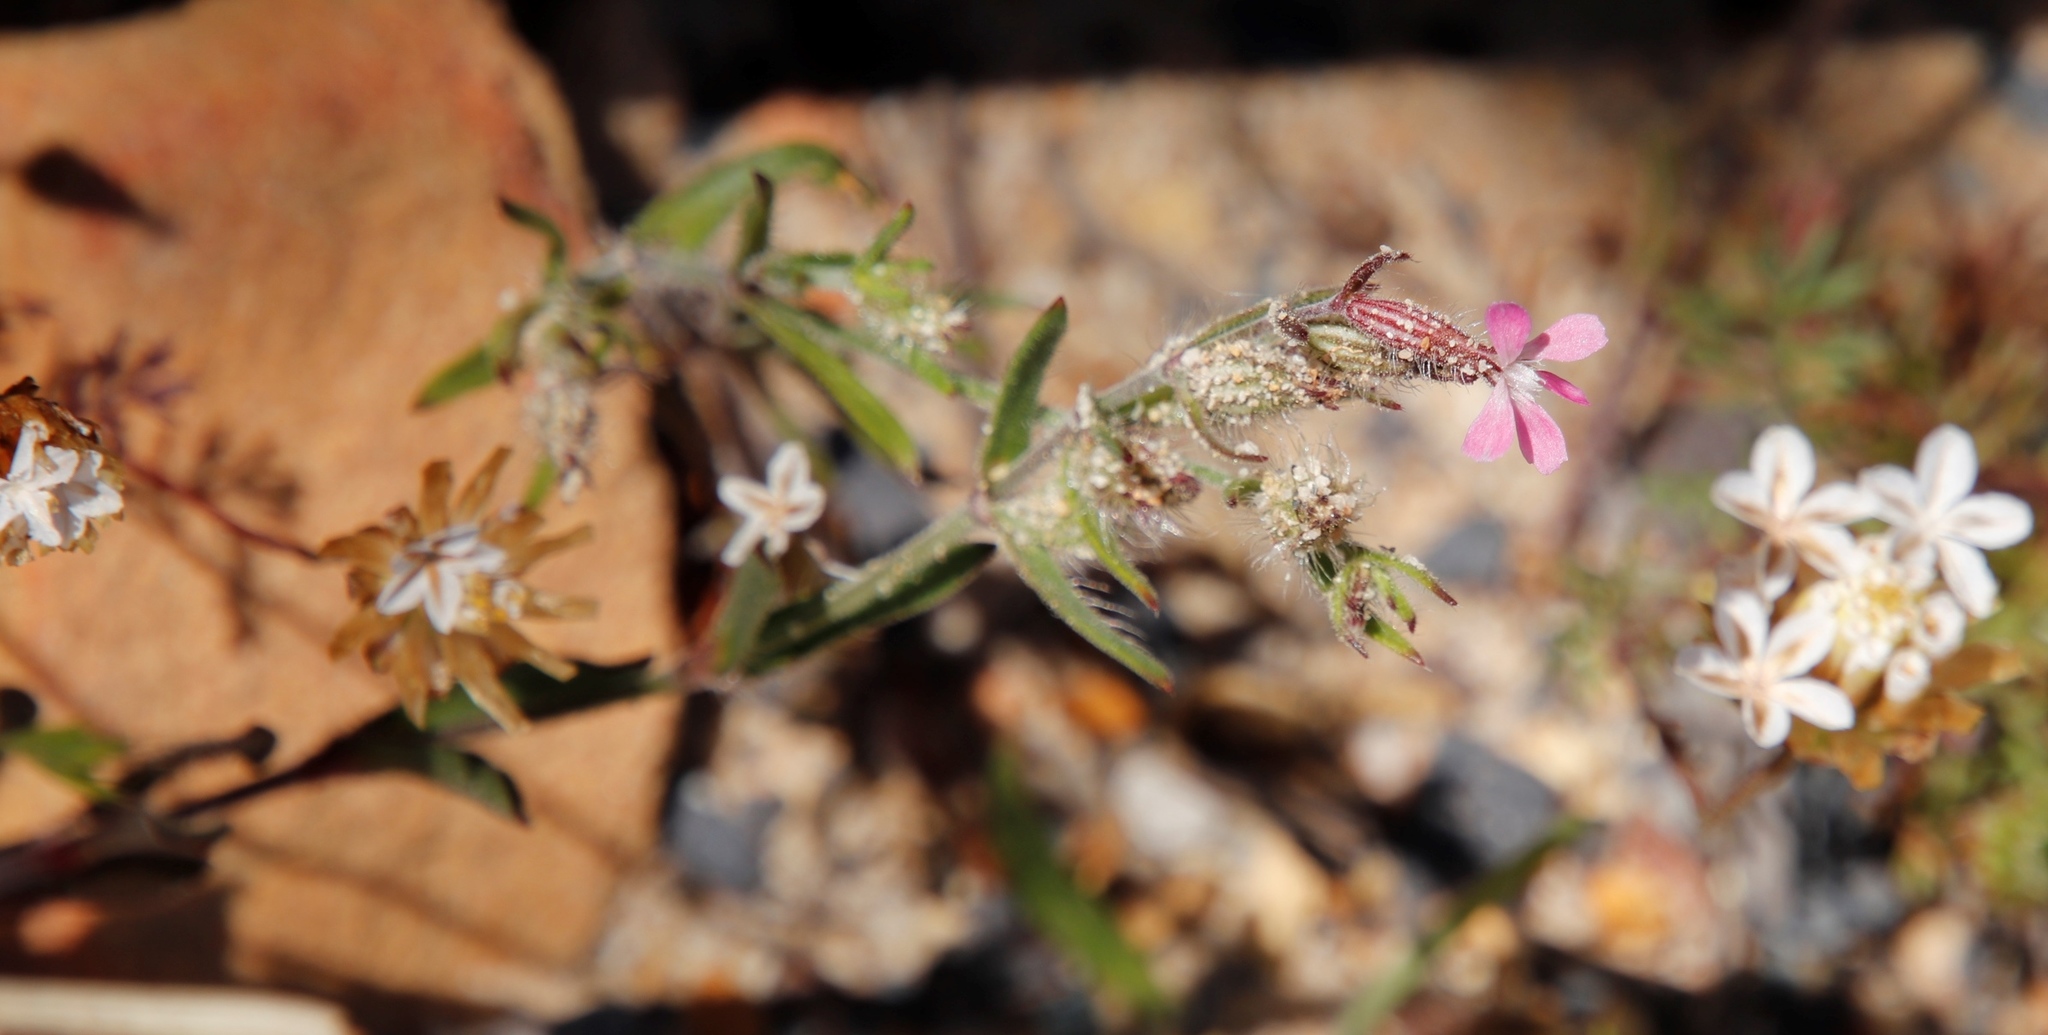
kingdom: Plantae
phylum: Tracheophyta
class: Magnoliopsida
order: Caryophyllales
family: Caryophyllaceae
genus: Silene
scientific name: Silene gallica
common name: Small-flowered catchfly
